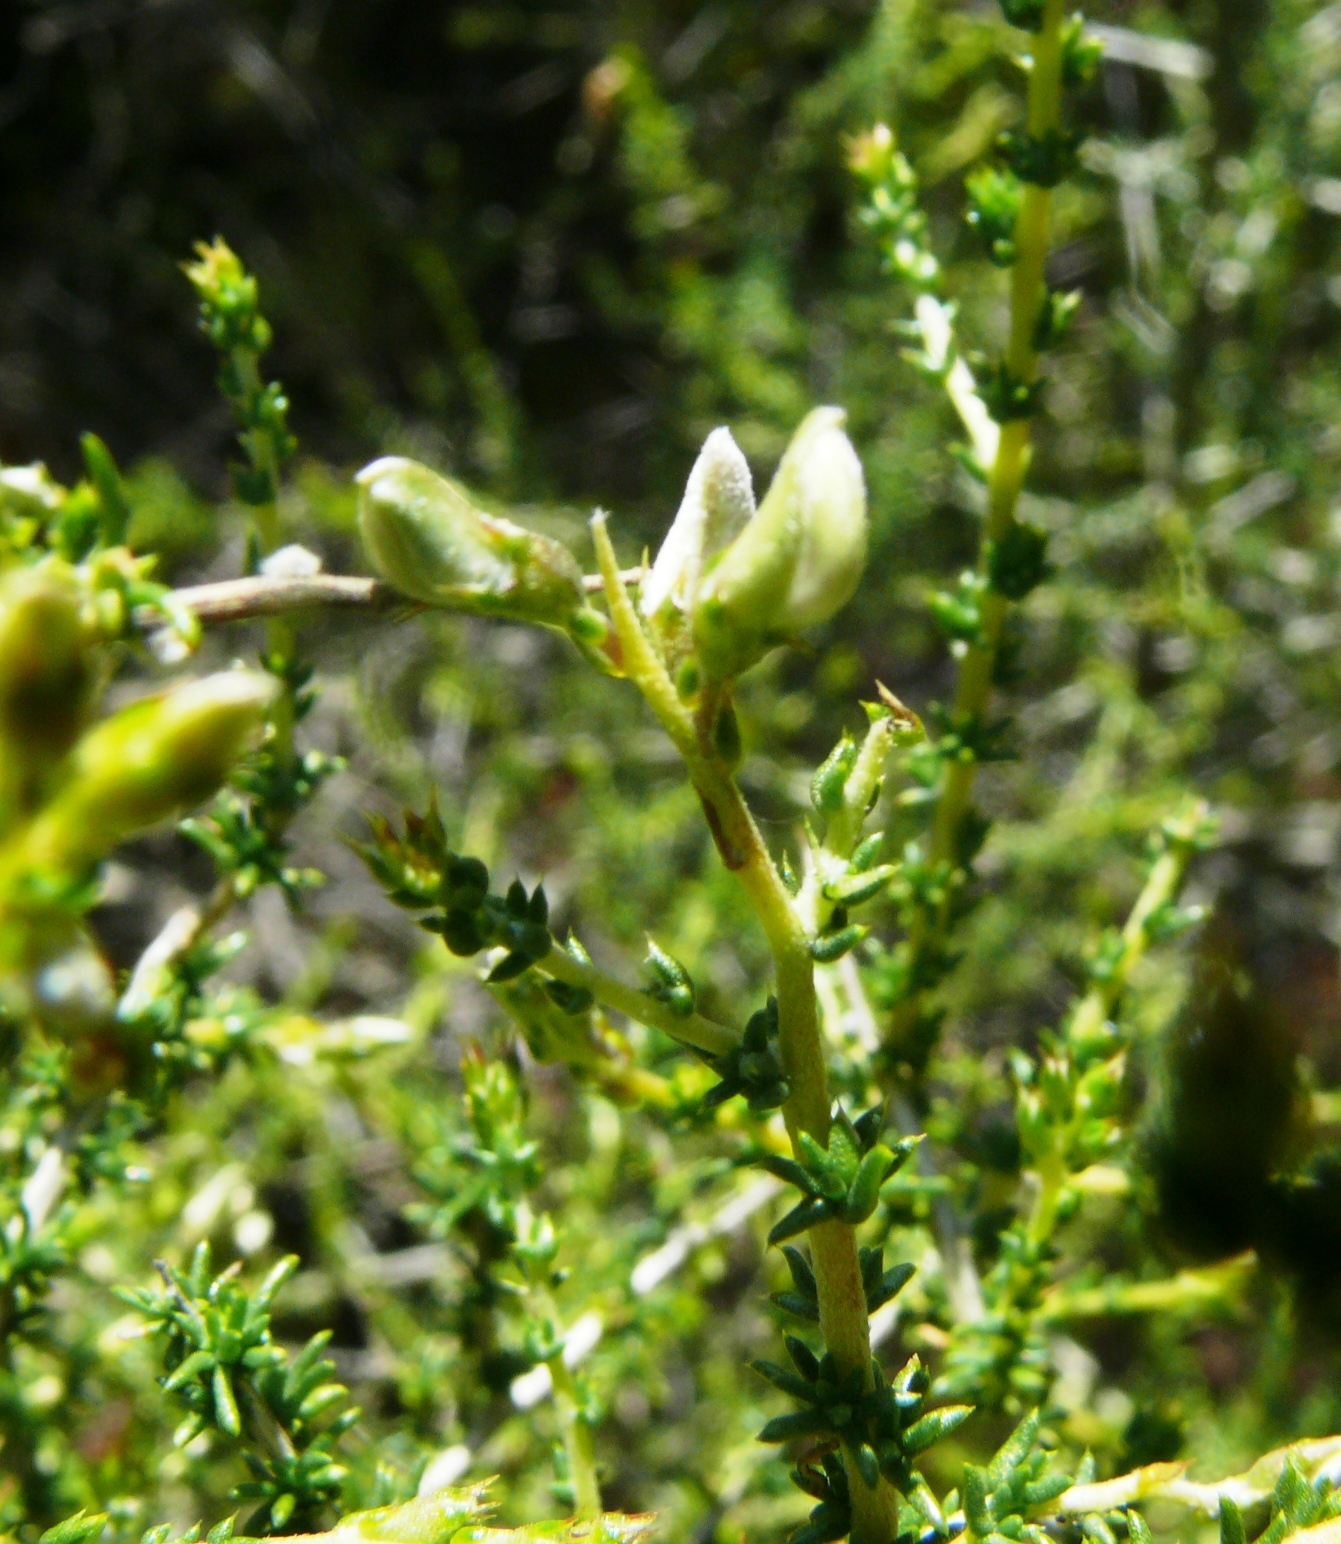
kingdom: Plantae
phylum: Tracheophyta
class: Magnoliopsida
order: Fabales
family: Fabaceae
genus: Aspalathus
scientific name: Aspalathus acuminata
